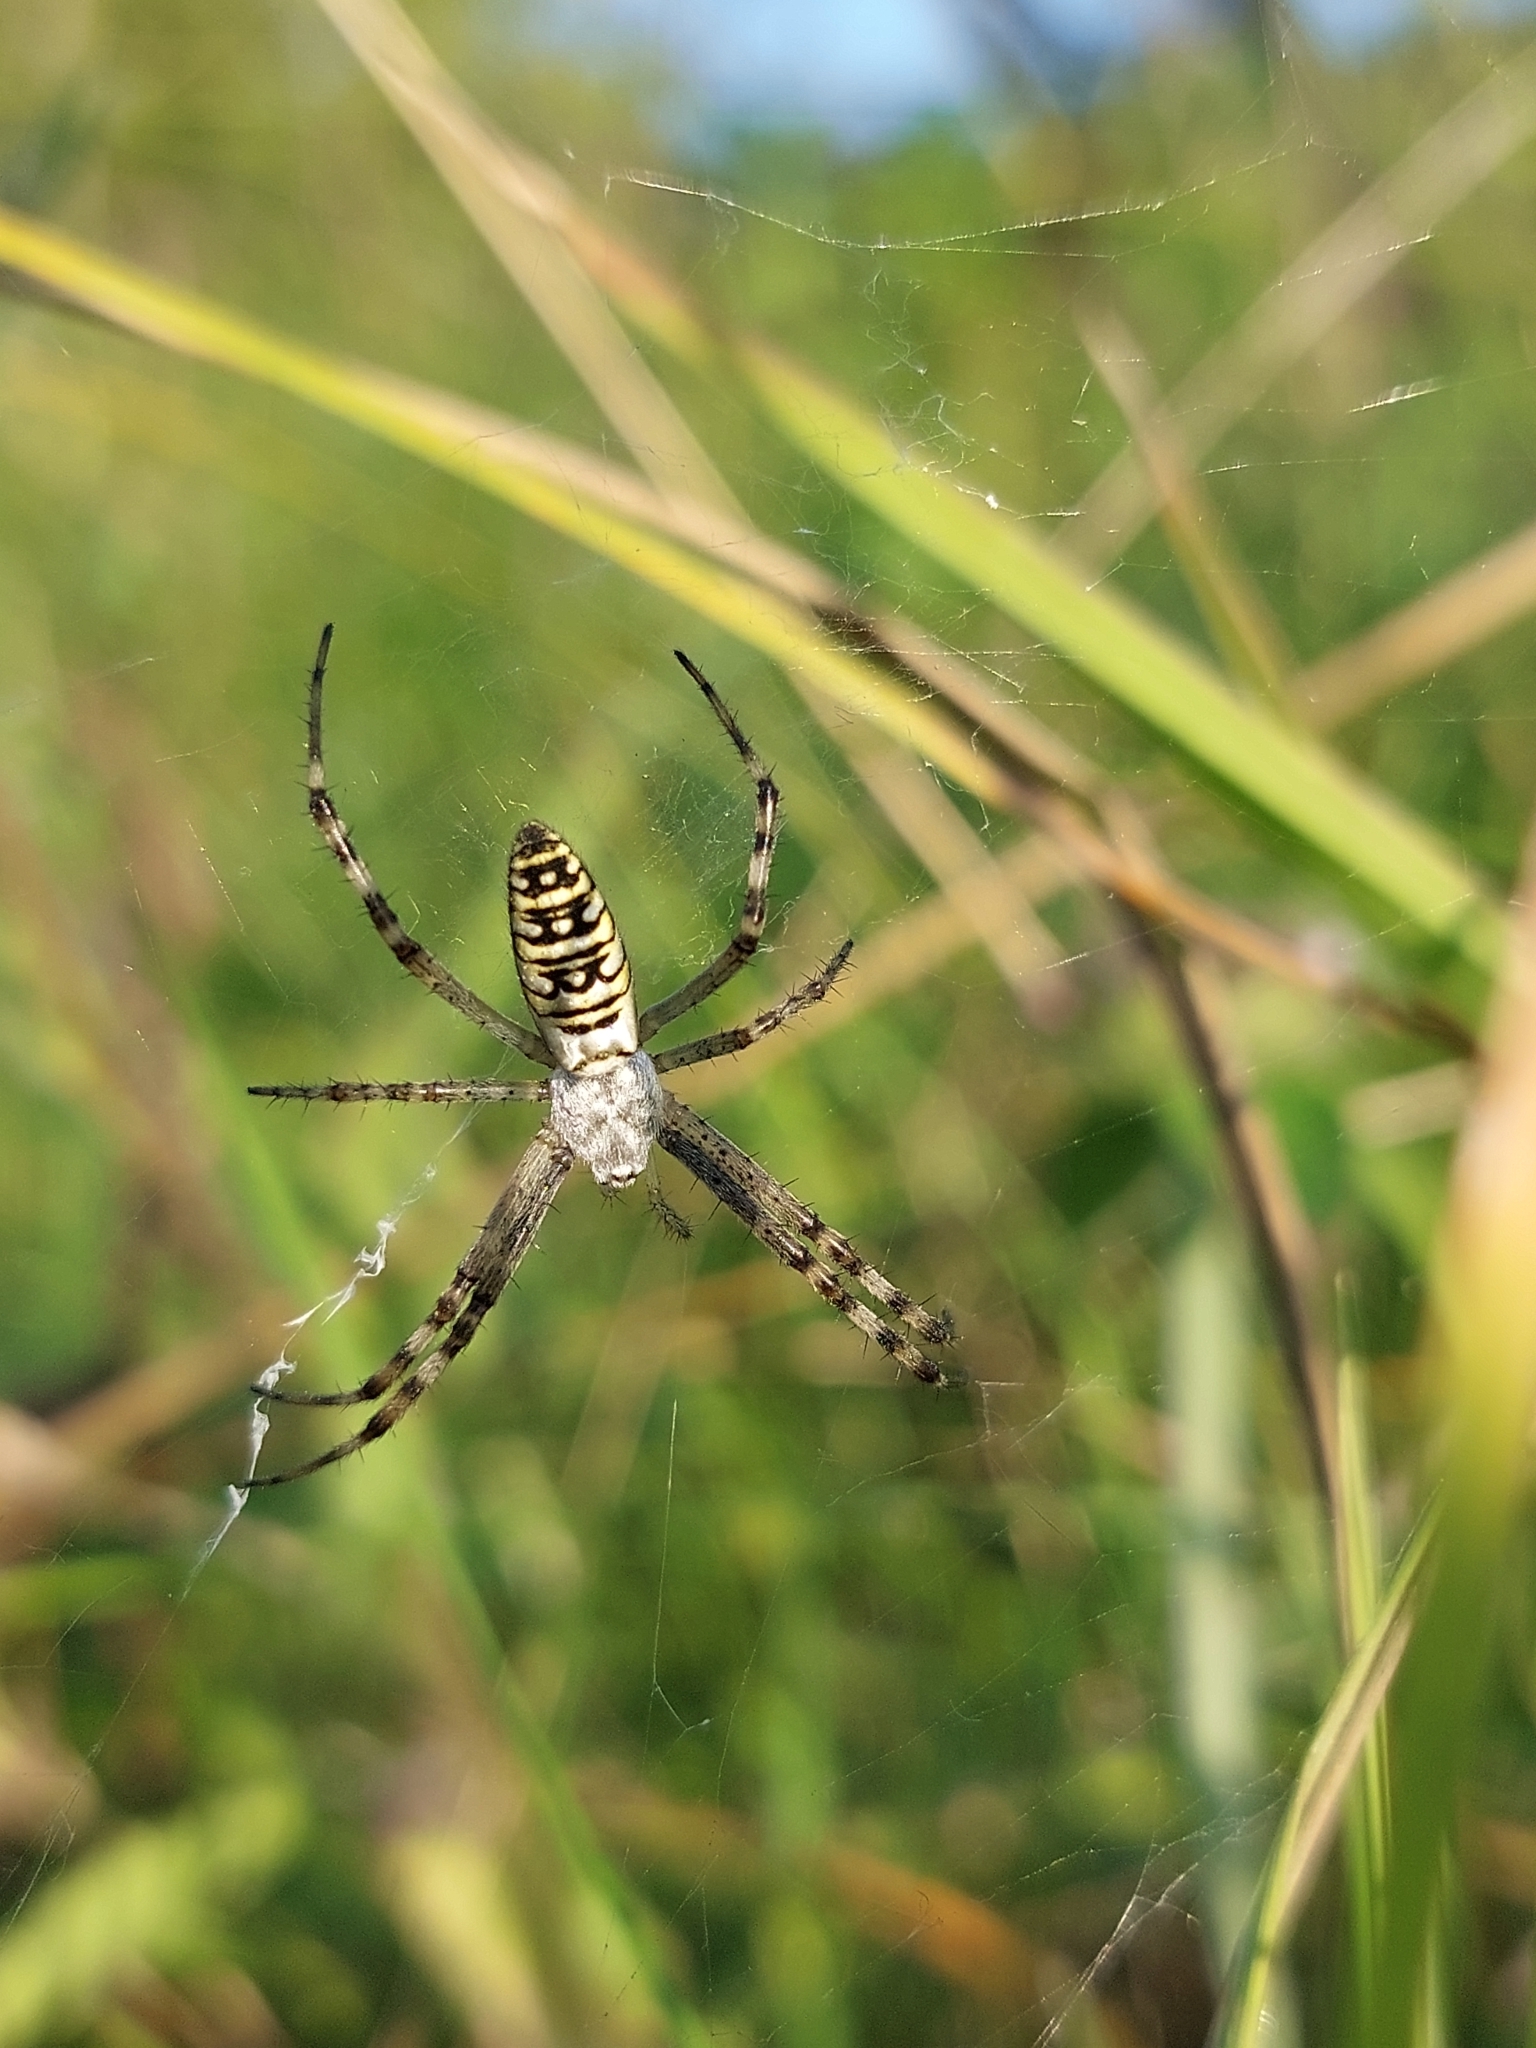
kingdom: Animalia
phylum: Arthropoda
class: Arachnida
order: Araneae
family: Araneidae
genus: Argiope
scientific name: Argiope bruennichi
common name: Wasp spider
